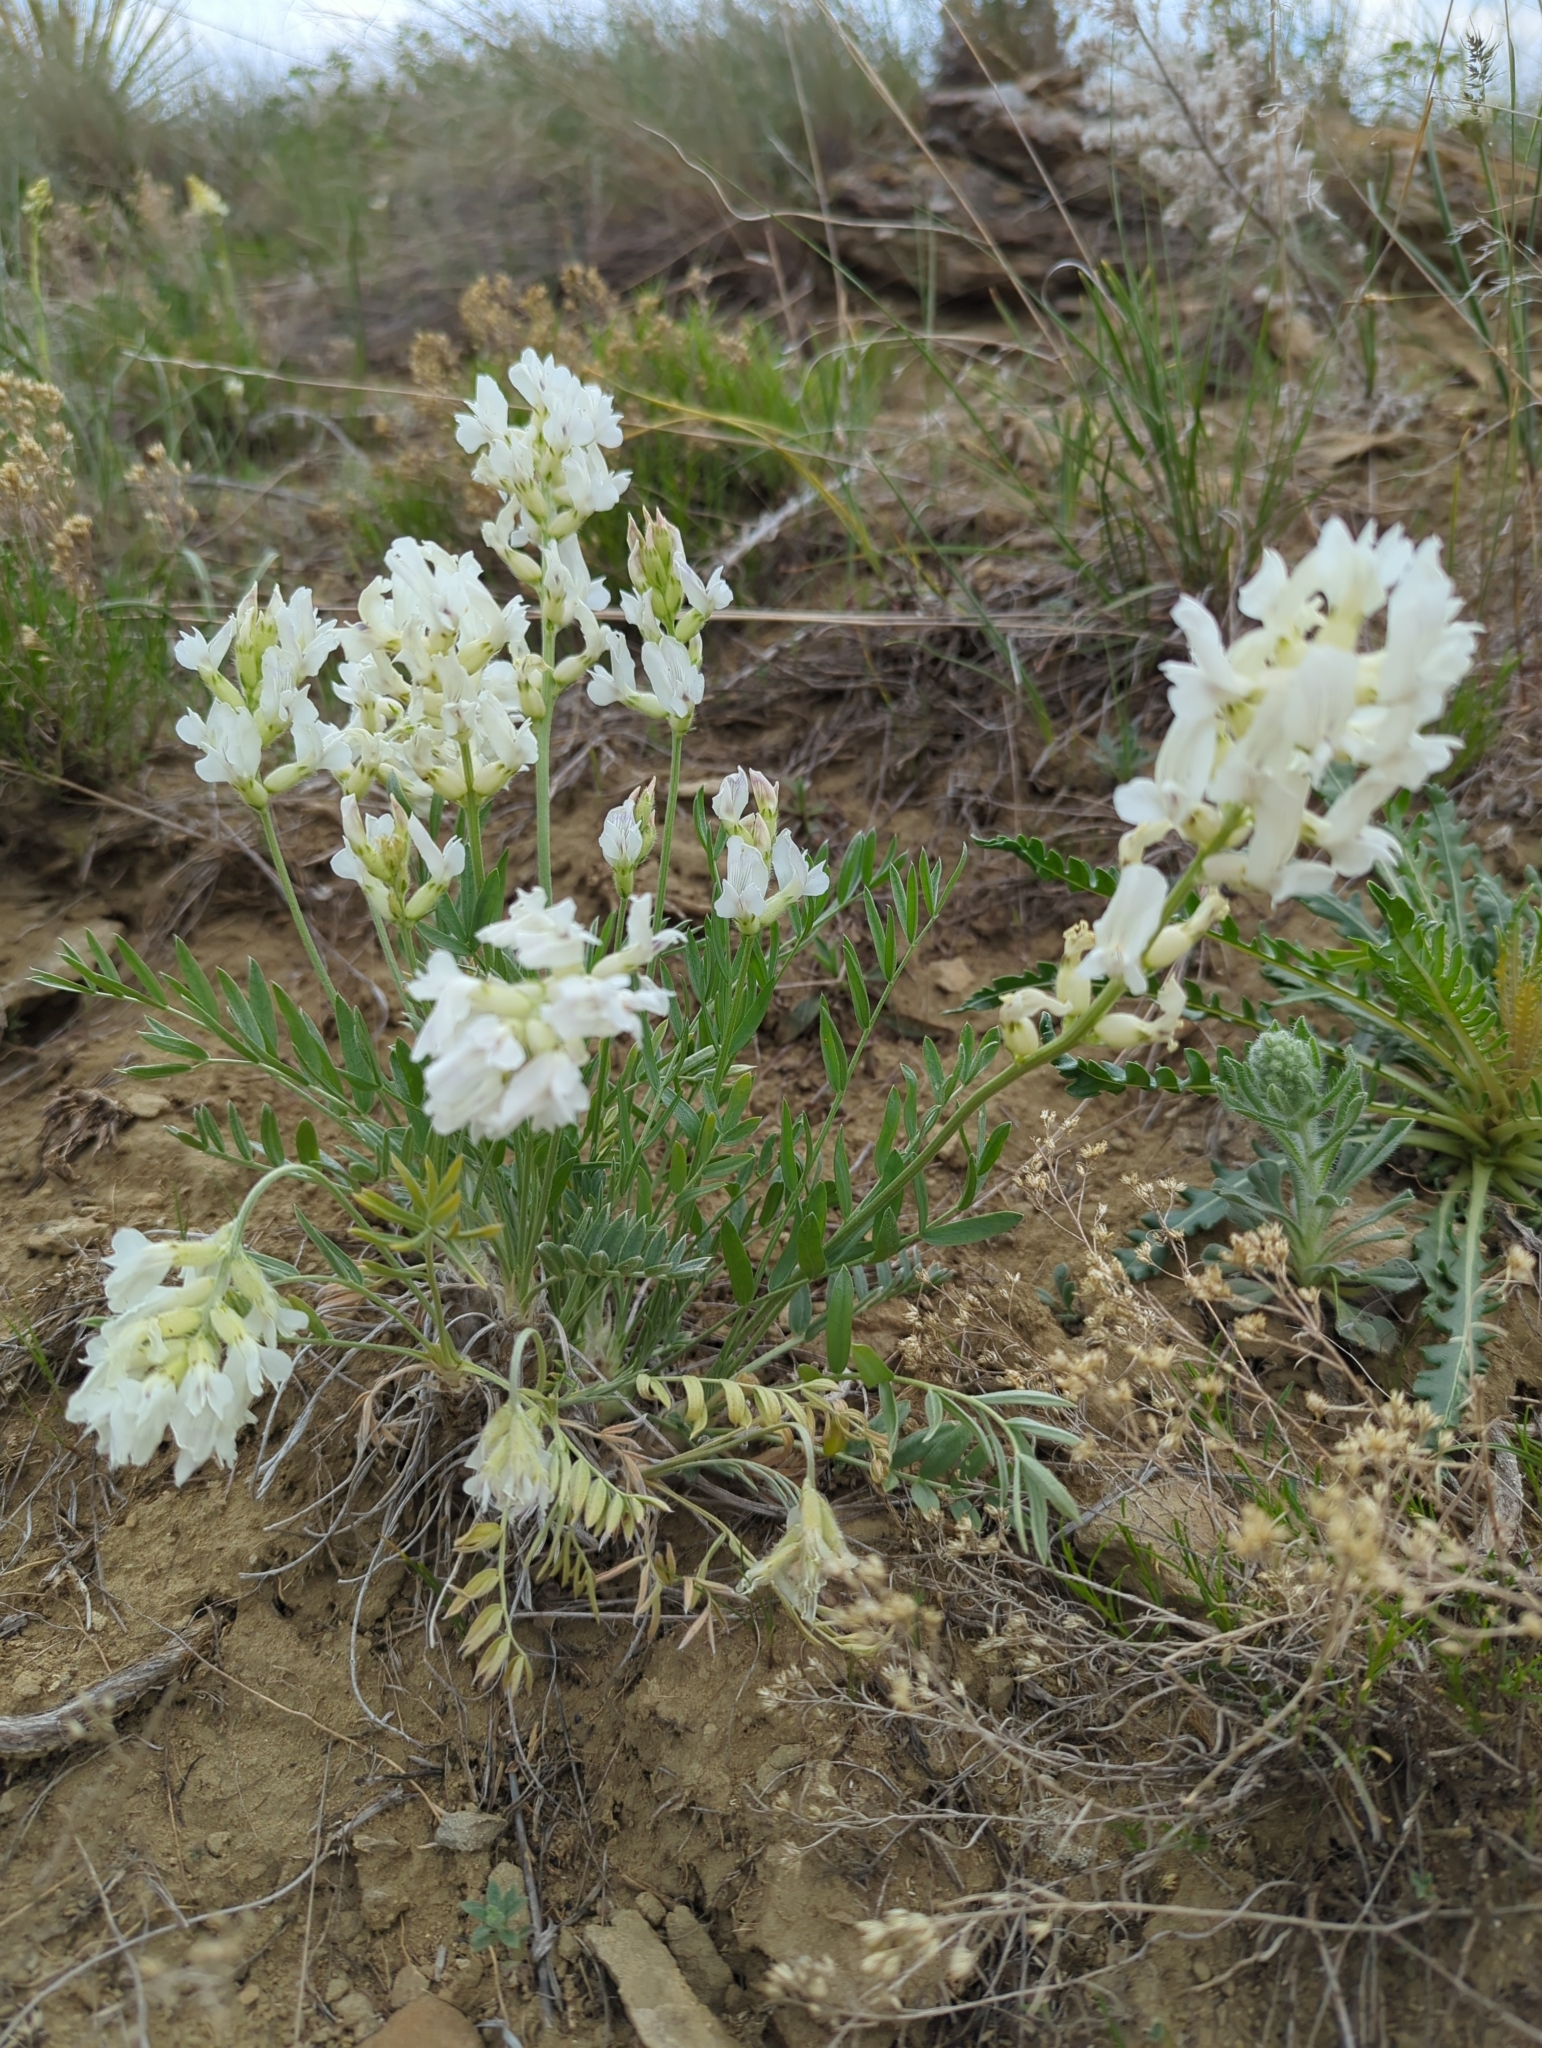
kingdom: Plantae
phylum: Tracheophyta
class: Magnoliopsida
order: Fabales
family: Fabaceae
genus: Oxytropis
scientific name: Oxytropis sericea
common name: Silky locoweed
